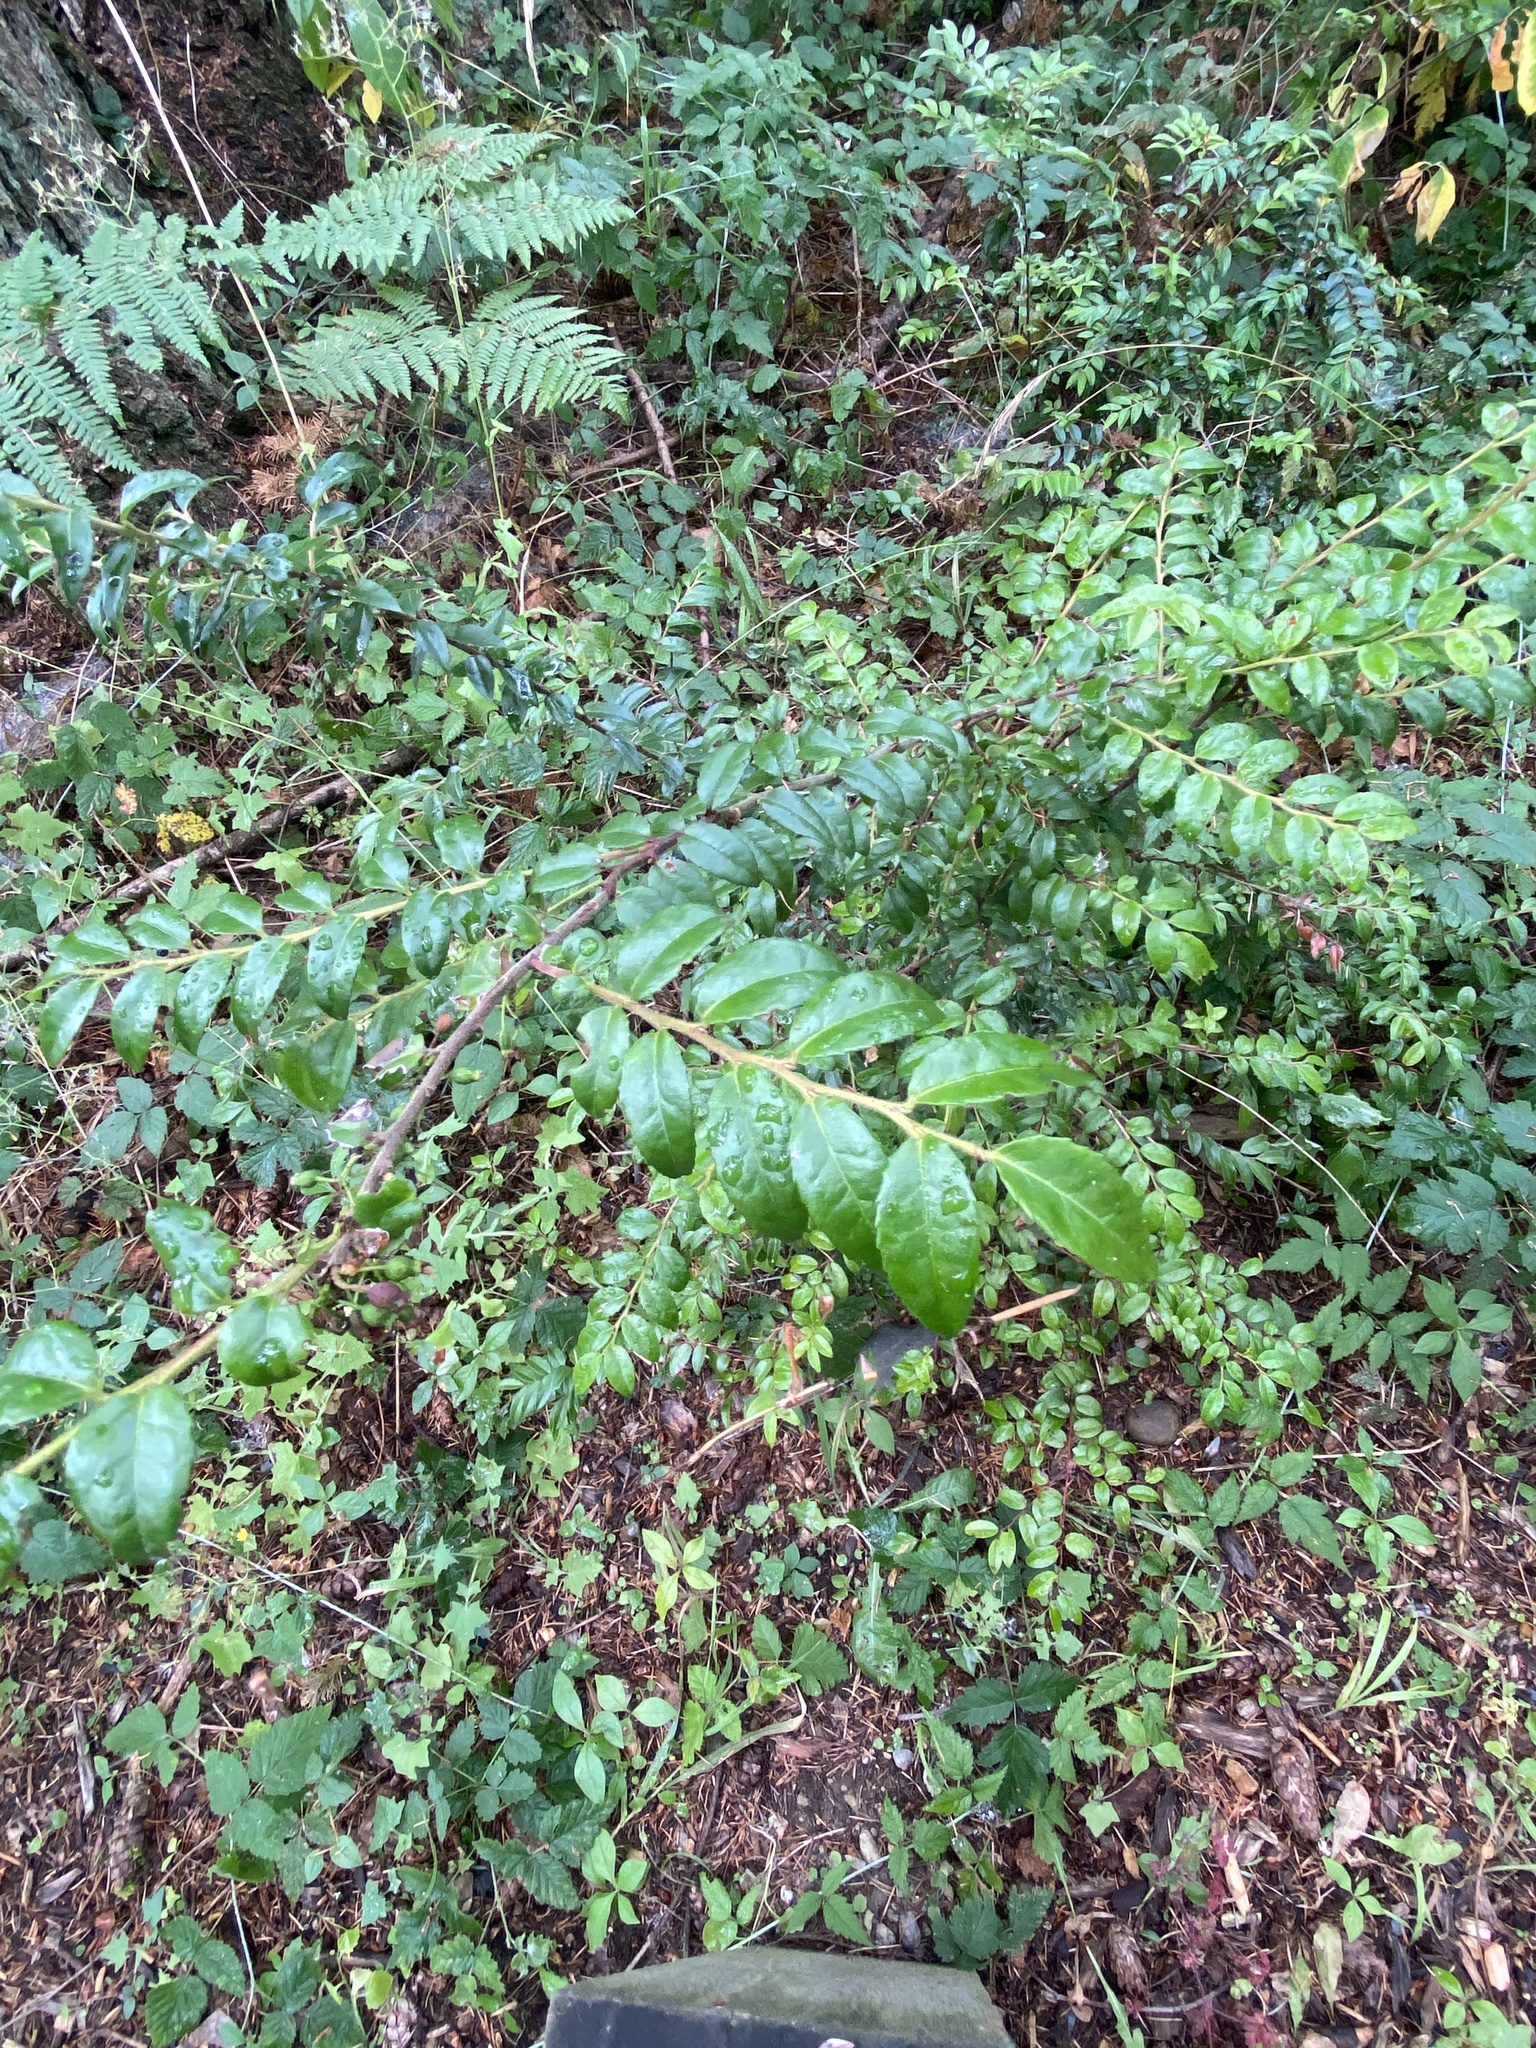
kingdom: Plantae
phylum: Tracheophyta
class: Magnoliopsida
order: Ericales
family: Ericaceae
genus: Vaccinium
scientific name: Vaccinium ovatum
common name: California-huckleberry
